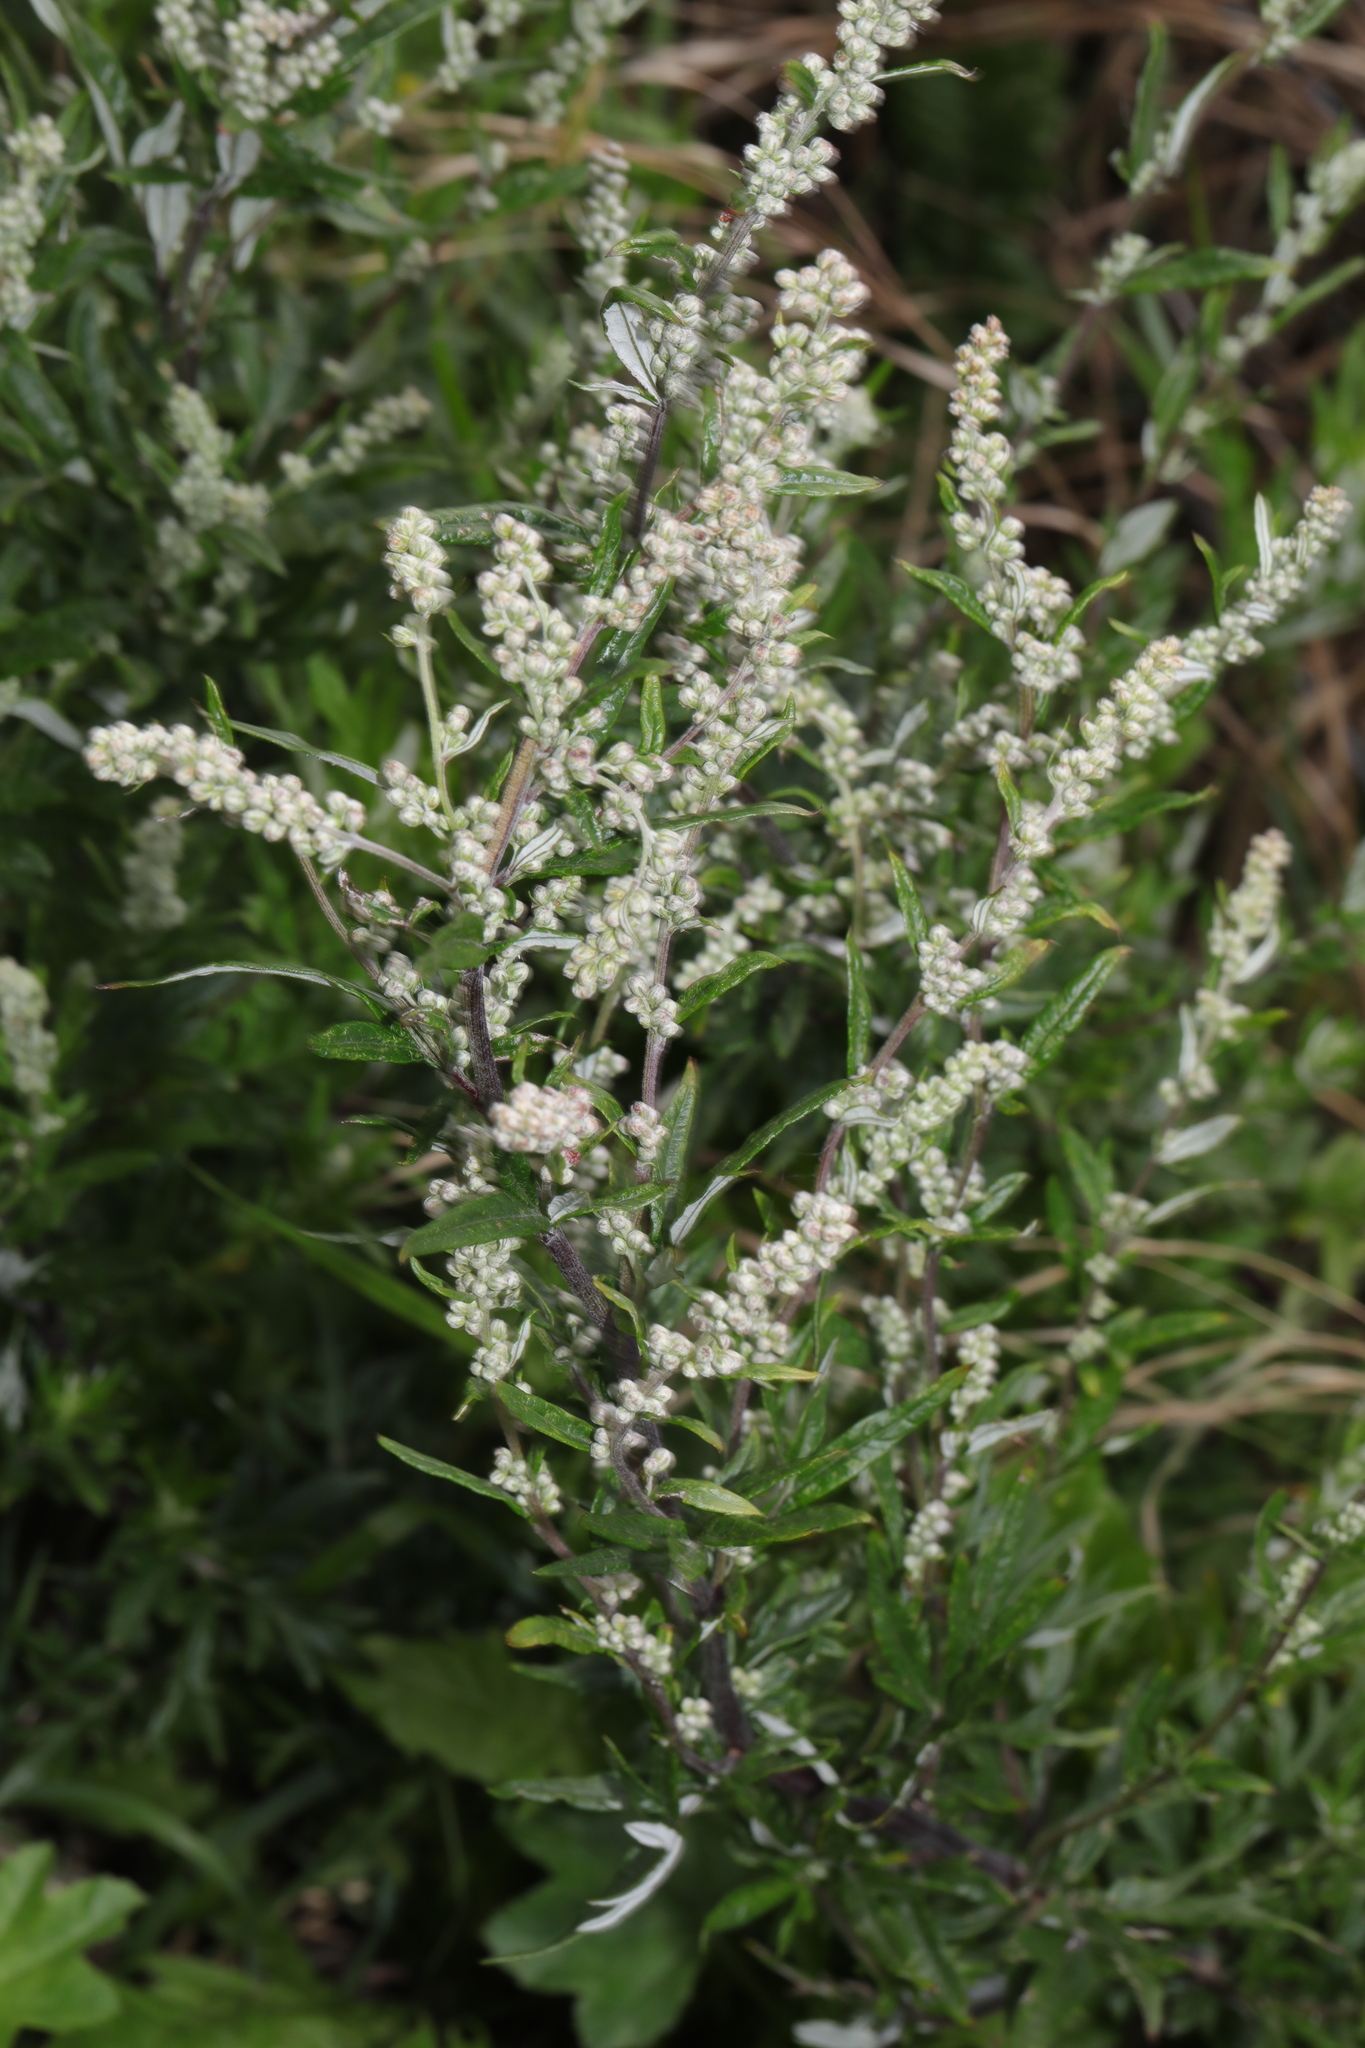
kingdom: Plantae
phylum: Tracheophyta
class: Magnoliopsida
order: Asterales
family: Asteraceae
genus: Artemisia
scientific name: Artemisia vulgaris
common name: Mugwort
